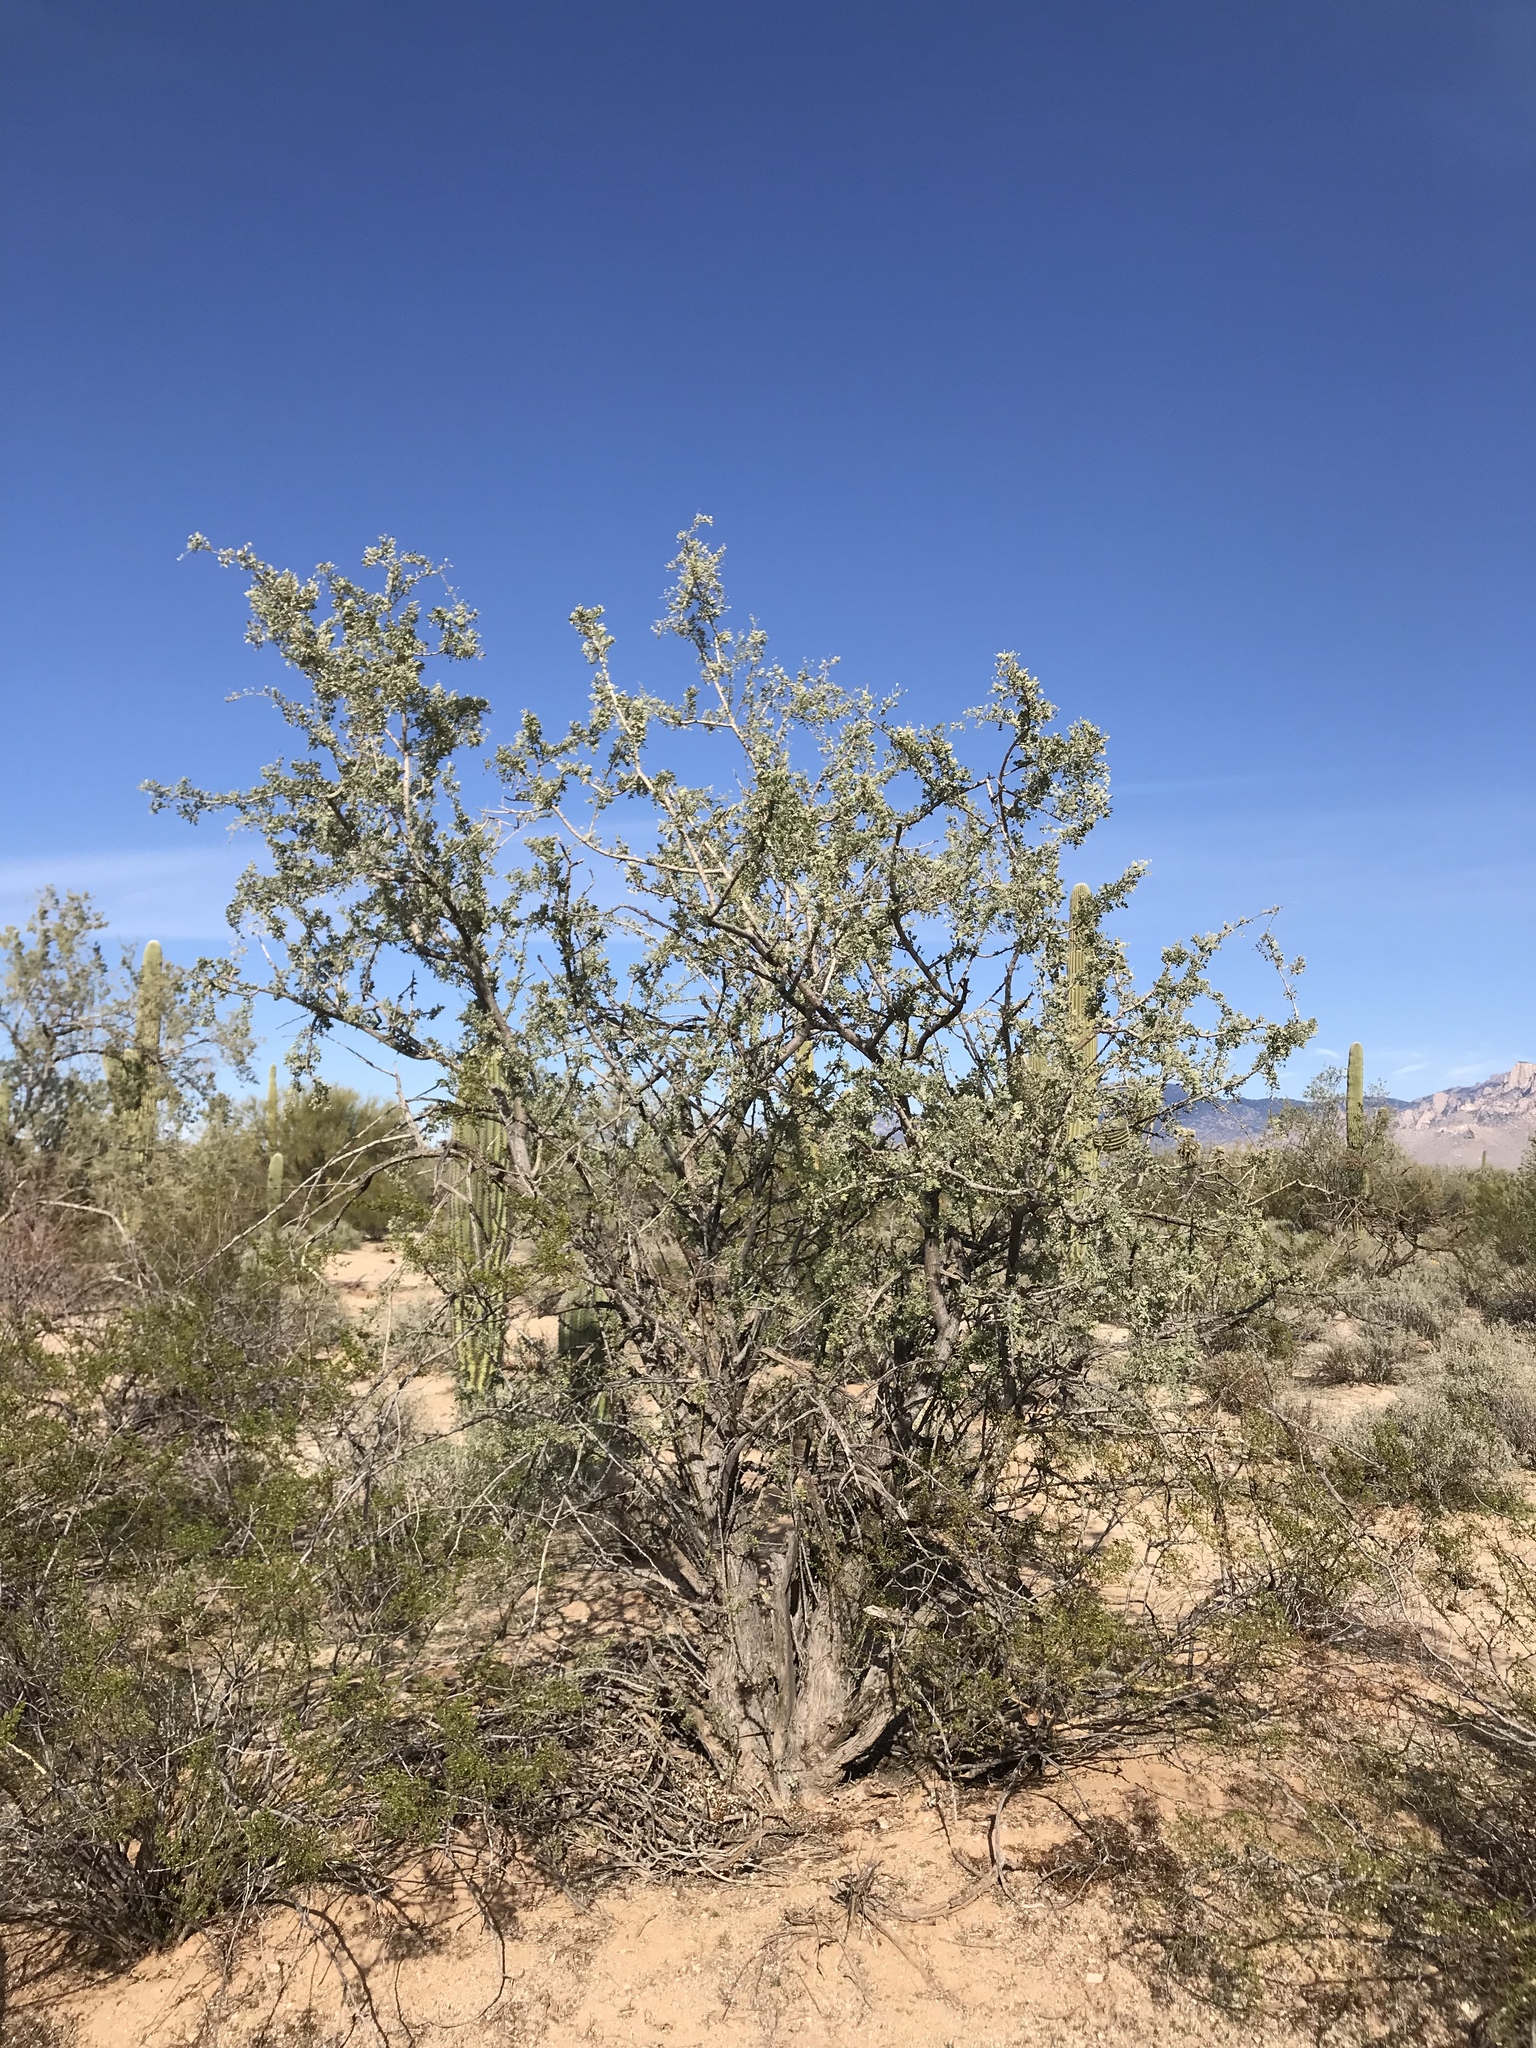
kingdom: Plantae
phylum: Tracheophyta
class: Magnoliopsida
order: Fabales
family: Fabaceae
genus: Olneya
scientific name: Olneya tesota
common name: Desert ironwood
